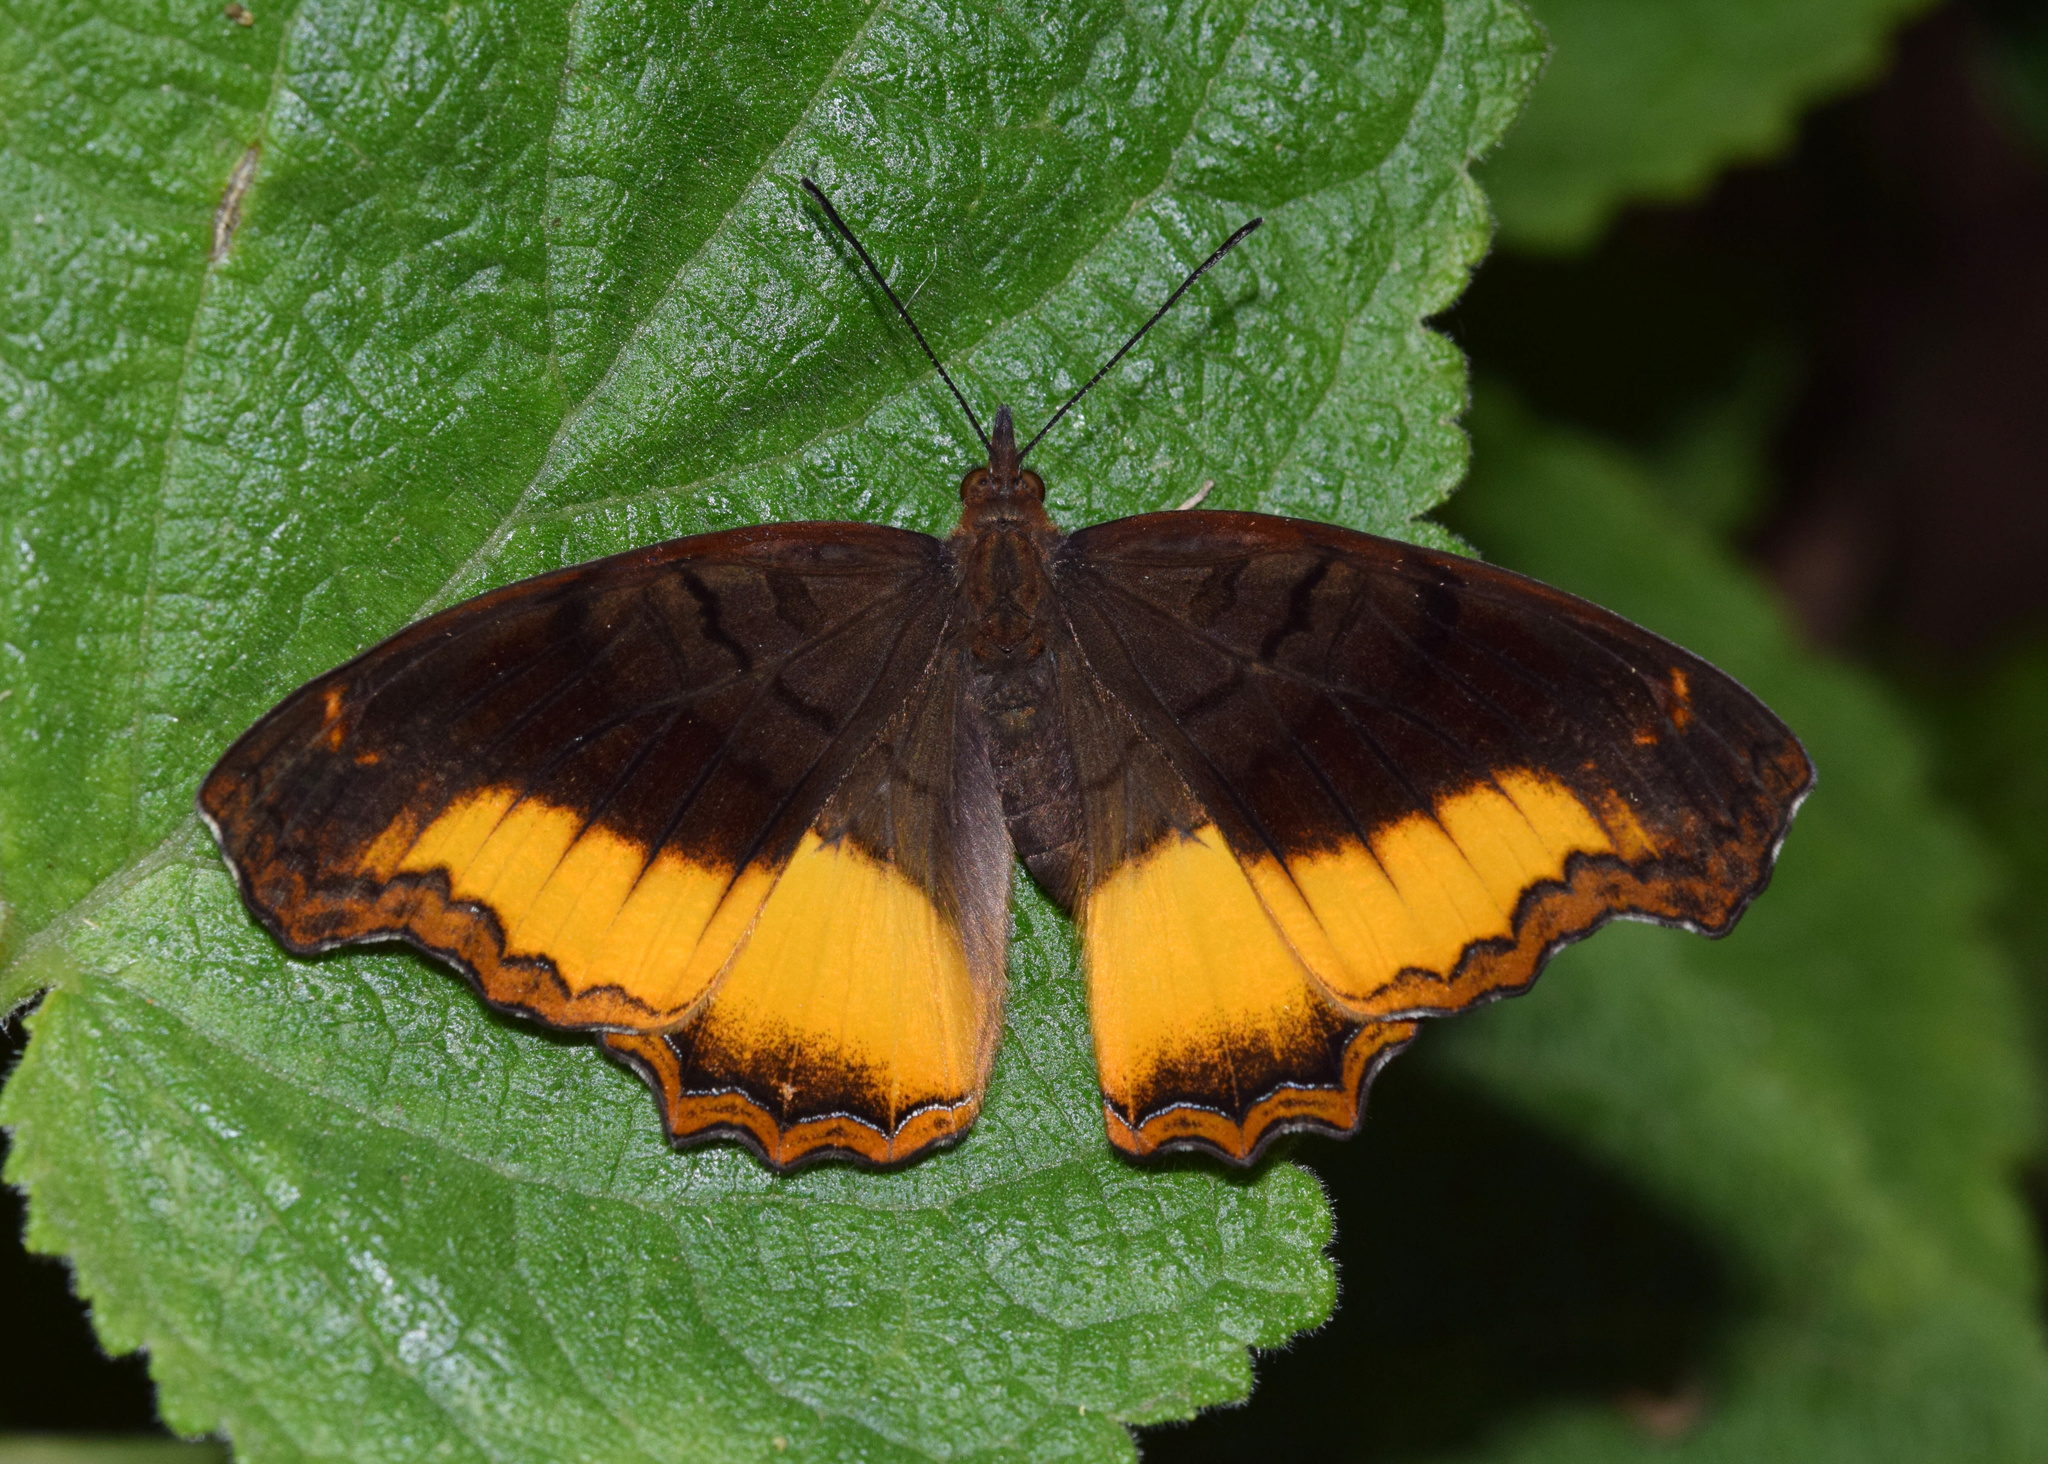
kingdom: Animalia
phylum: Arthropoda
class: Insecta
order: Lepidoptera
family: Nymphalidae
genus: Eurytela
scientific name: Eurytela dryope
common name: Golden piper
